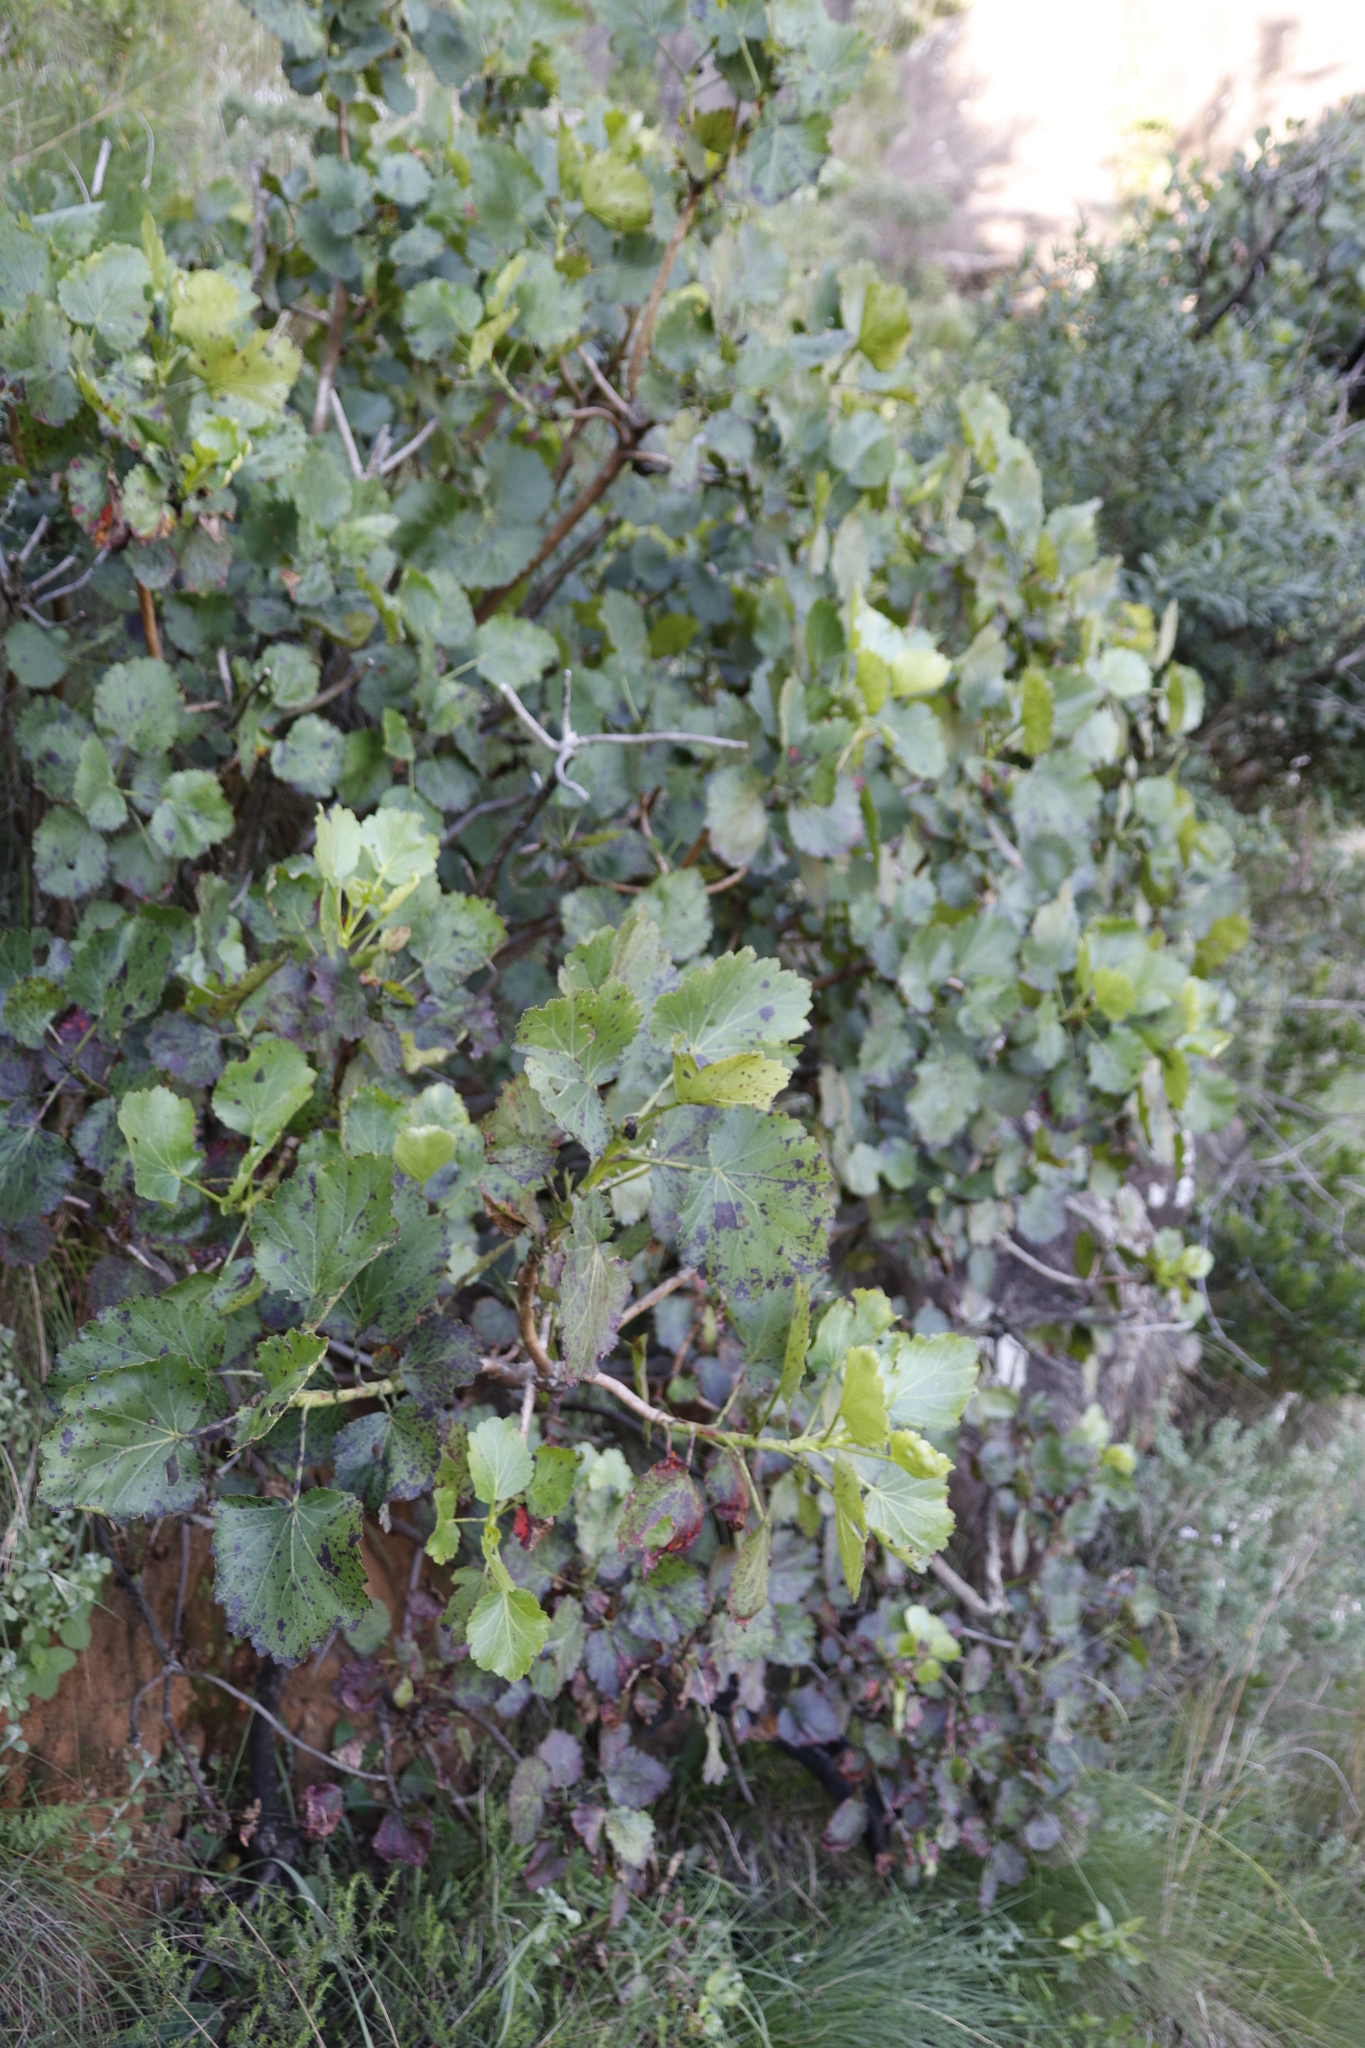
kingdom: Plantae
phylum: Tracheophyta
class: Magnoliopsida
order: Geraniales
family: Francoaceae
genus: Greyia
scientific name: Greyia sutherlandii
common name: Glossy bottlebrush
